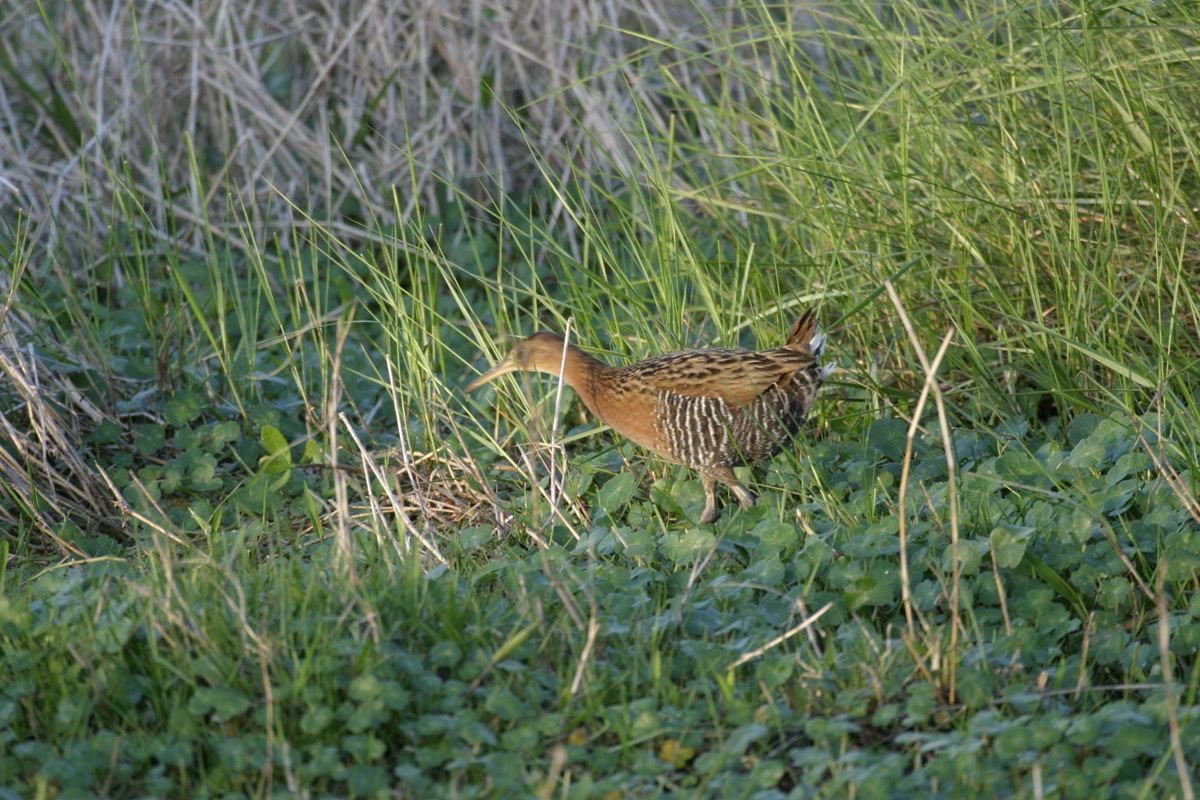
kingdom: Animalia
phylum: Chordata
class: Aves
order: Gruiformes
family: Rallidae
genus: Rallus
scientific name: Rallus elegans
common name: King rail
